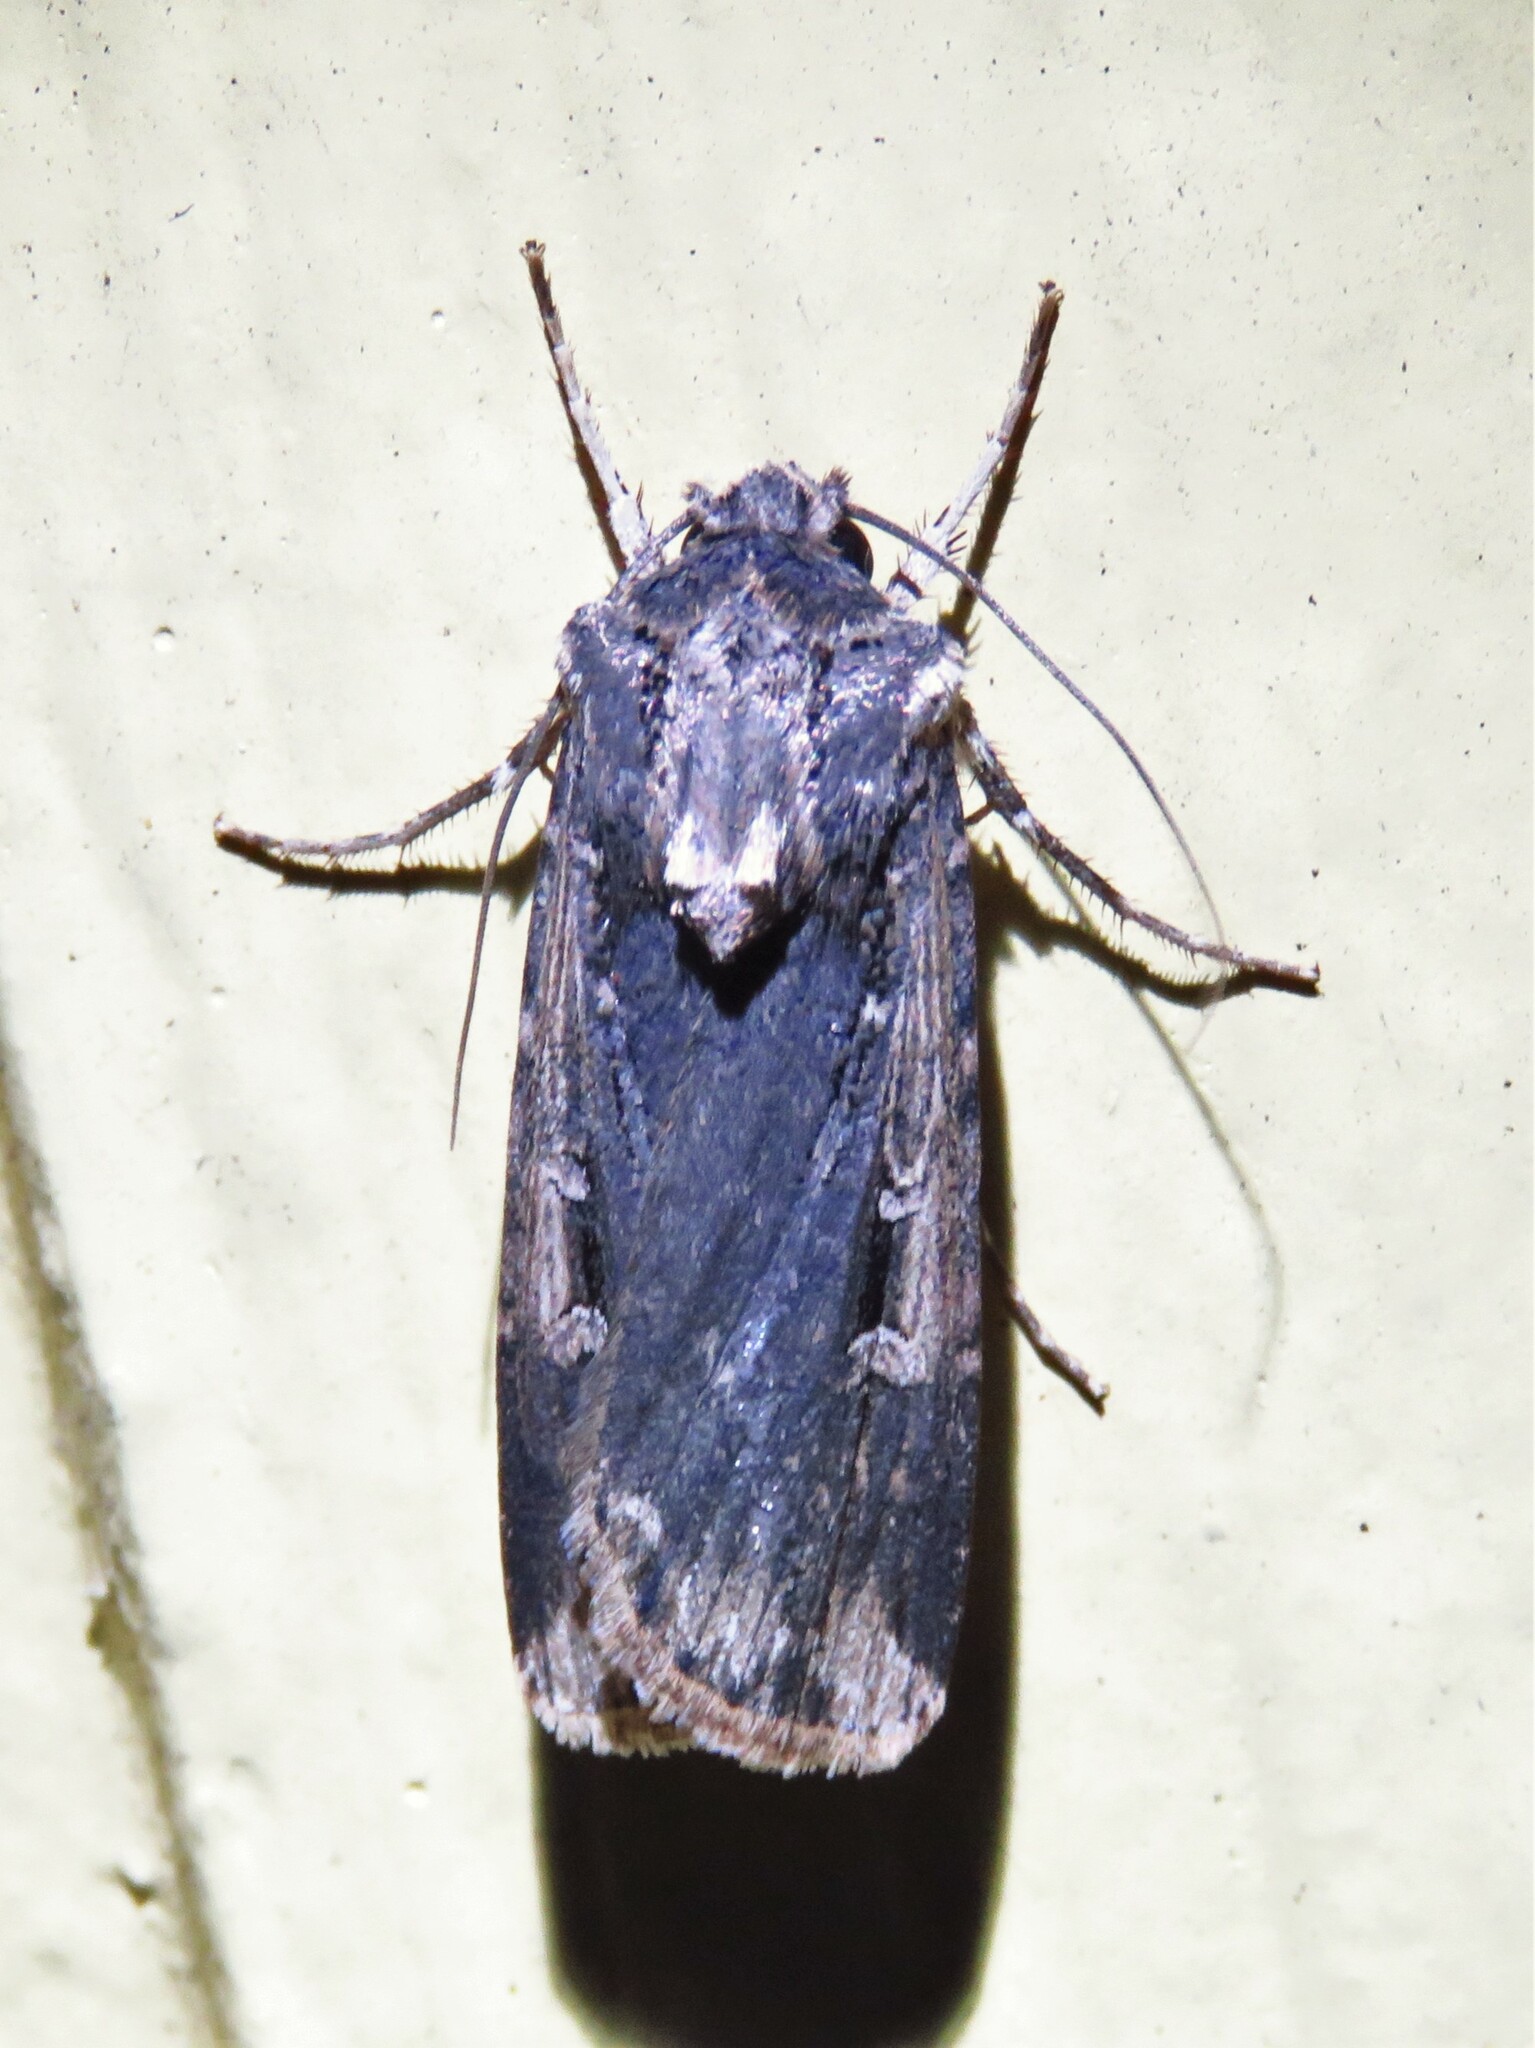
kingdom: Animalia
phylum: Arthropoda
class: Insecta
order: Lepidoptera
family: Noctuidae
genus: Feltia
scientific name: Feltia subterranea
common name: Granulate cutworm
